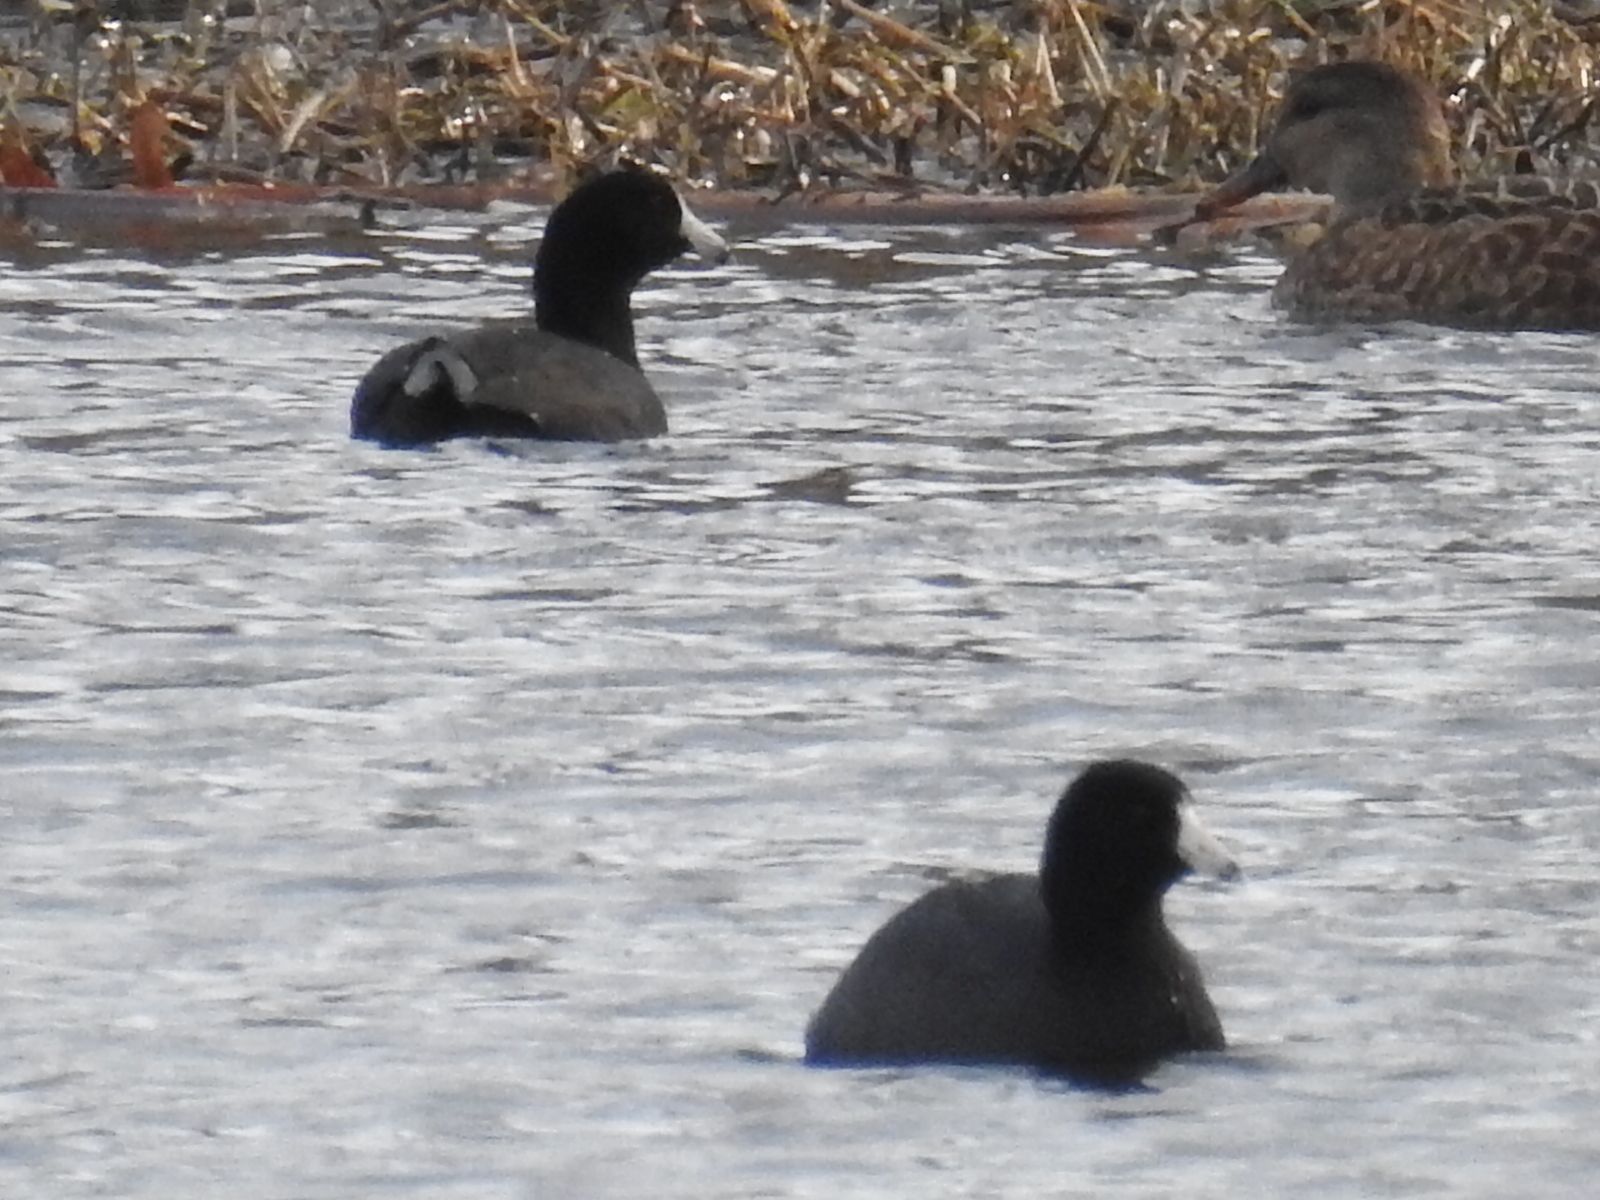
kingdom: Animalia
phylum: Chordata
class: Aves
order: Gruiformes
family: Rallidae
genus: Fulica
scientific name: Fulica americana
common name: American coot
